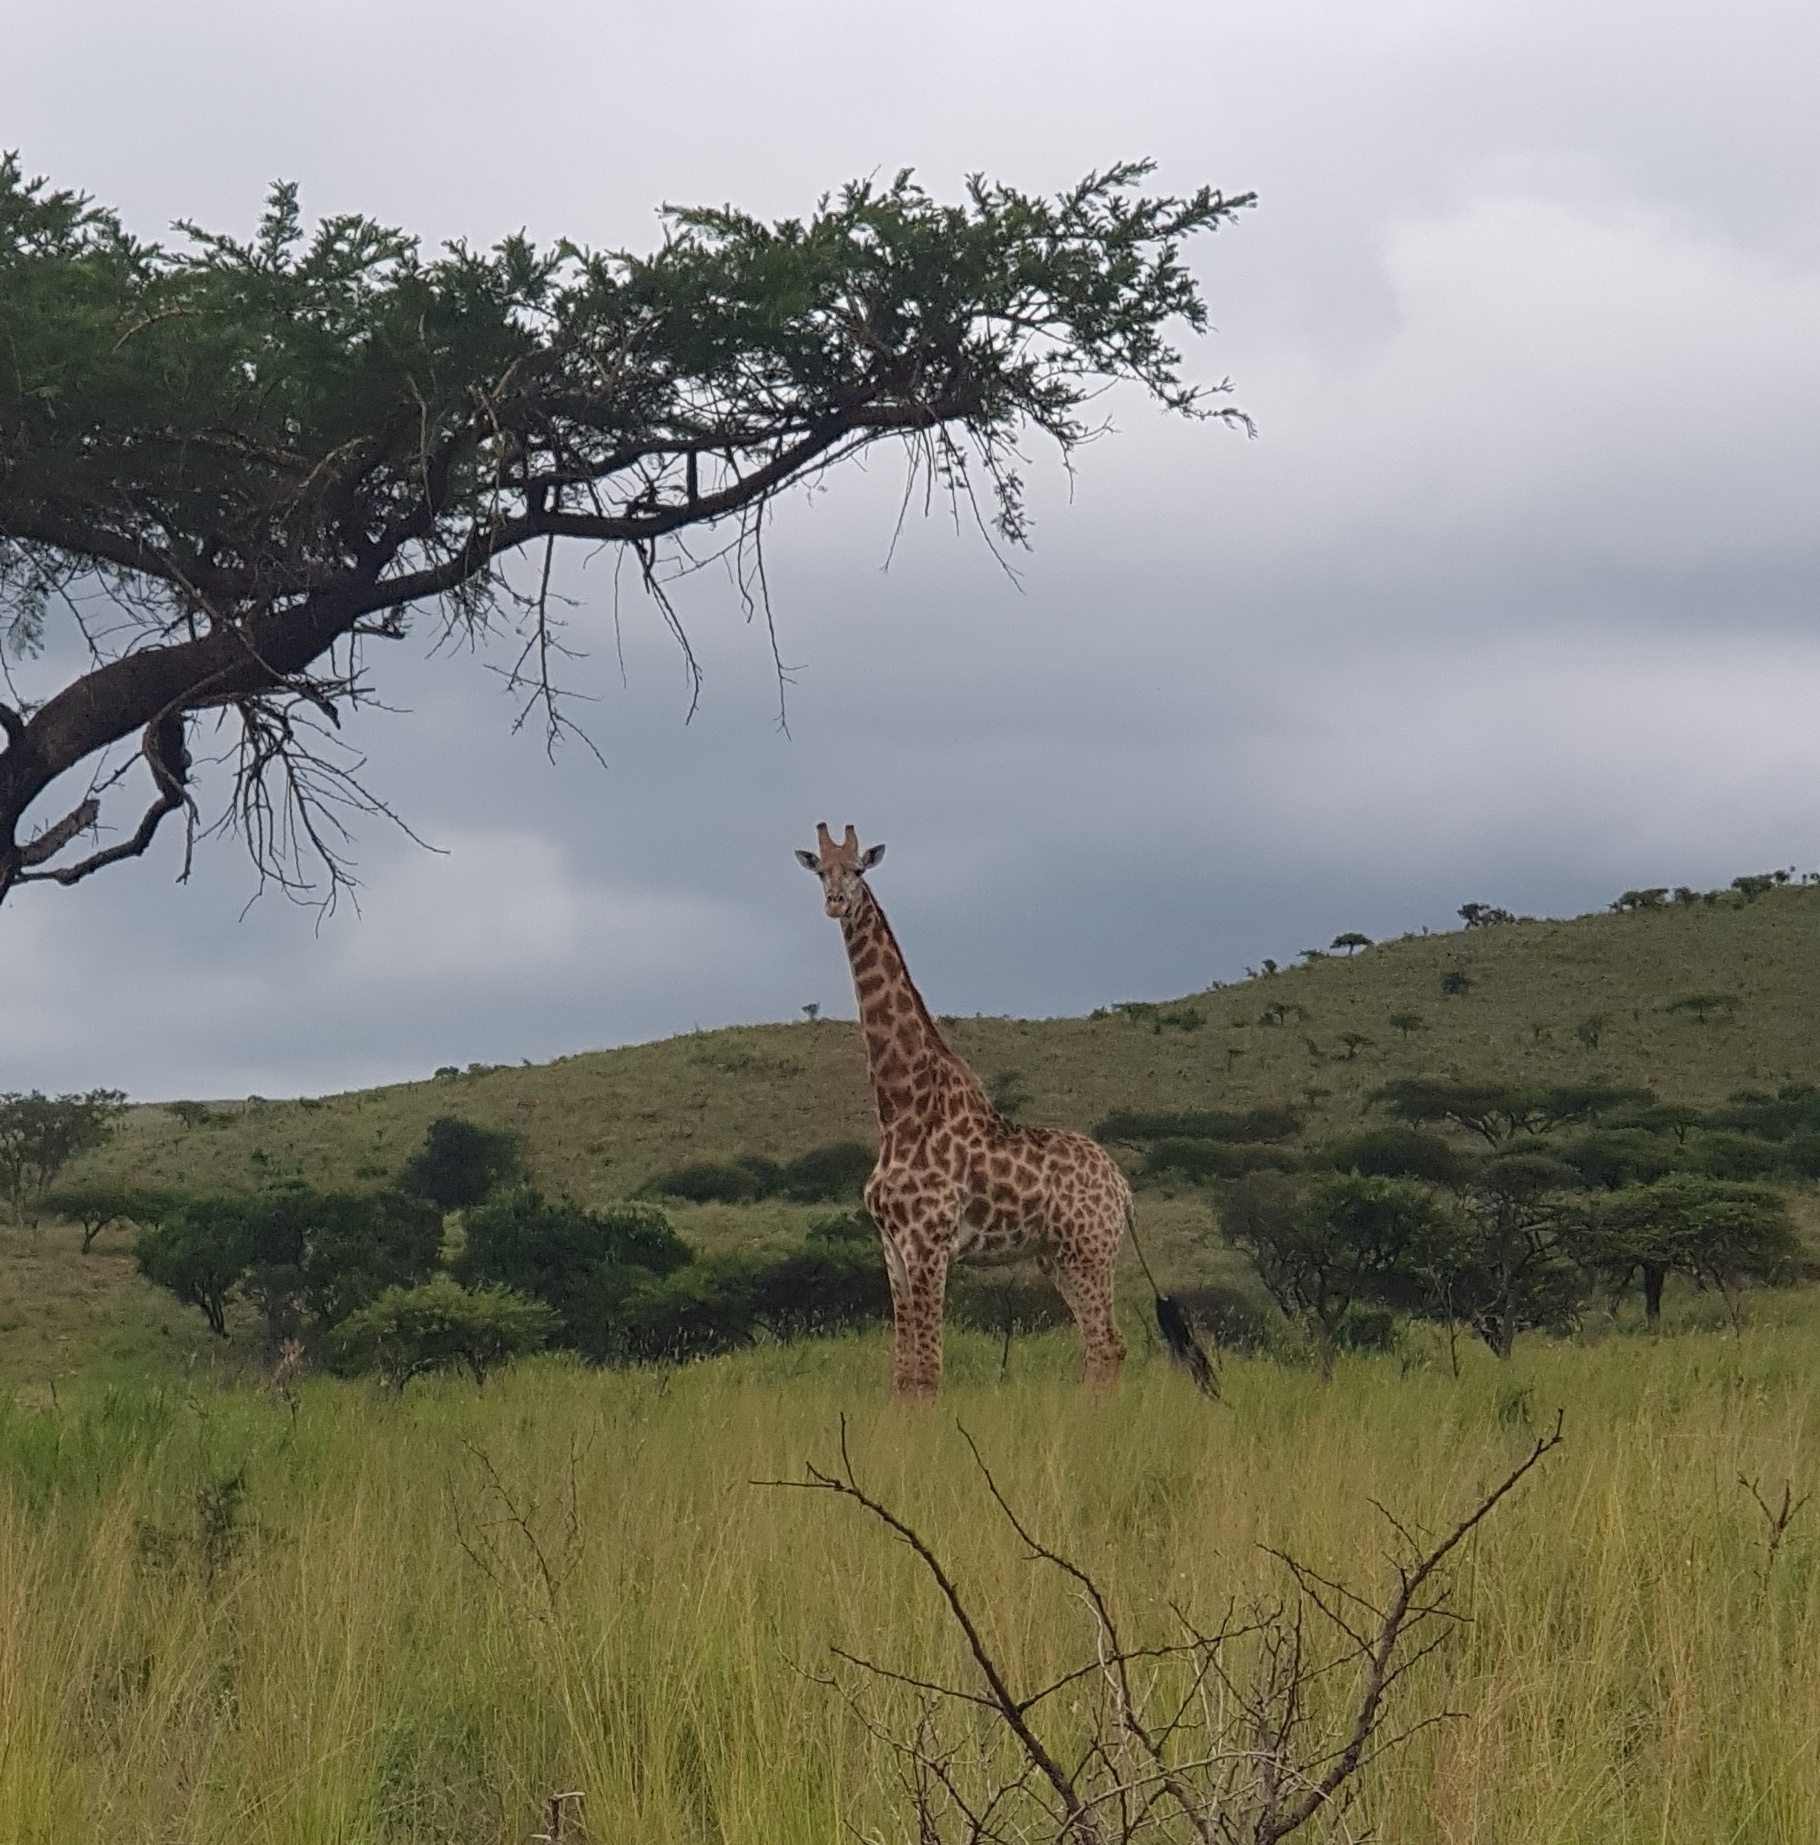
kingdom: Animalia
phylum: Chordata
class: Mammalia
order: Artiodactyla
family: Giraffidae
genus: Giraffa
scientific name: Giraffa giraffa
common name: Southern giraffe
